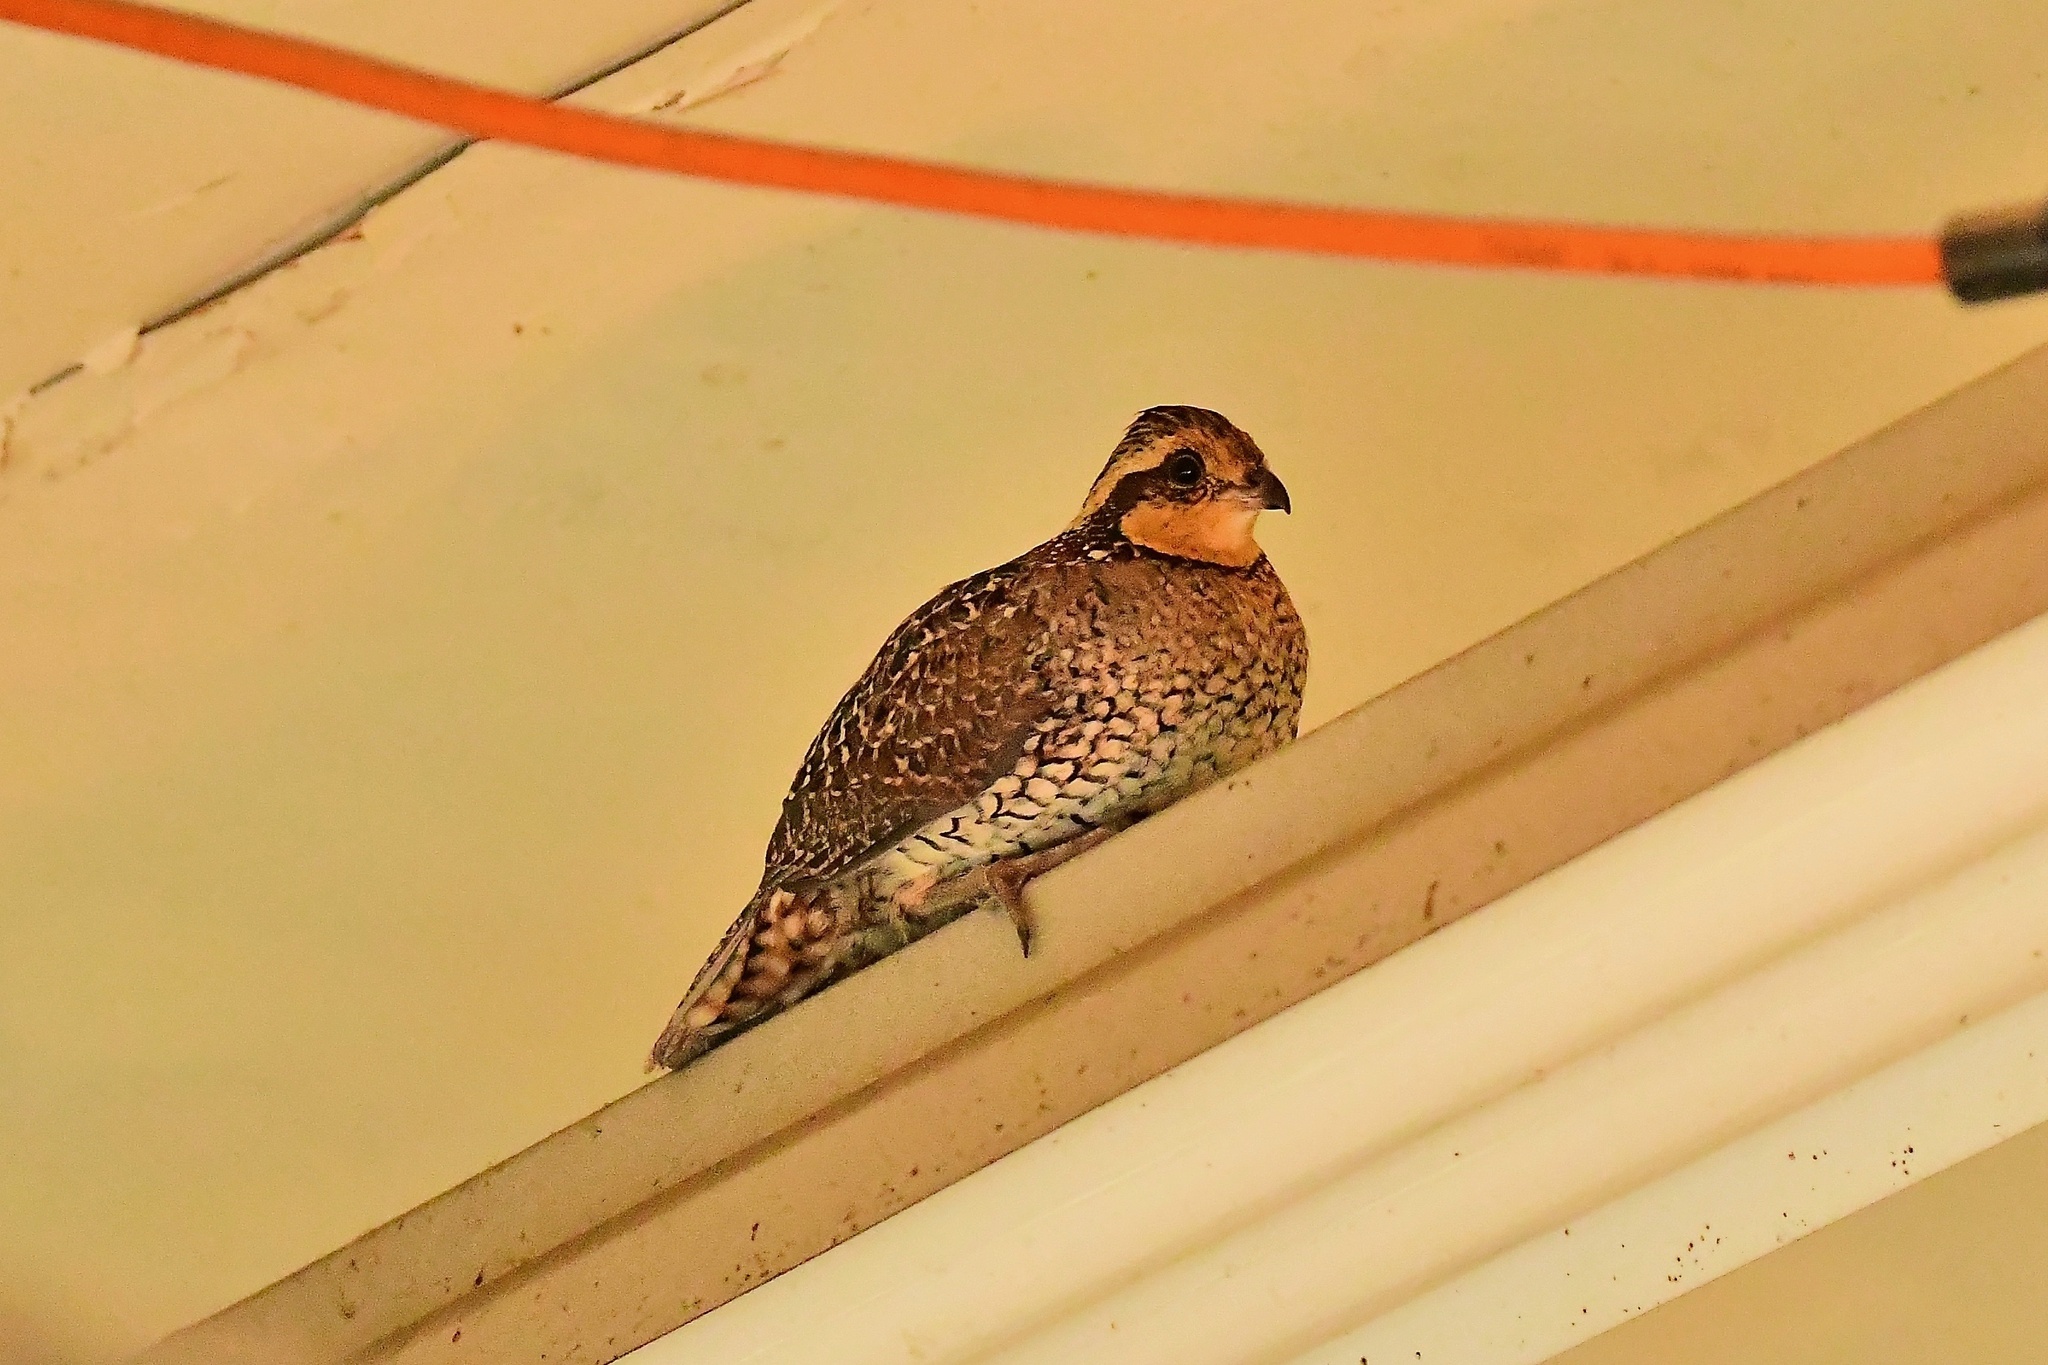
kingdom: Animalia
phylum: Chordata
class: Aves
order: Galliformes
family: Odontophoridae
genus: Colinus
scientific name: Colinus virginianus
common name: Northern bobwhite
